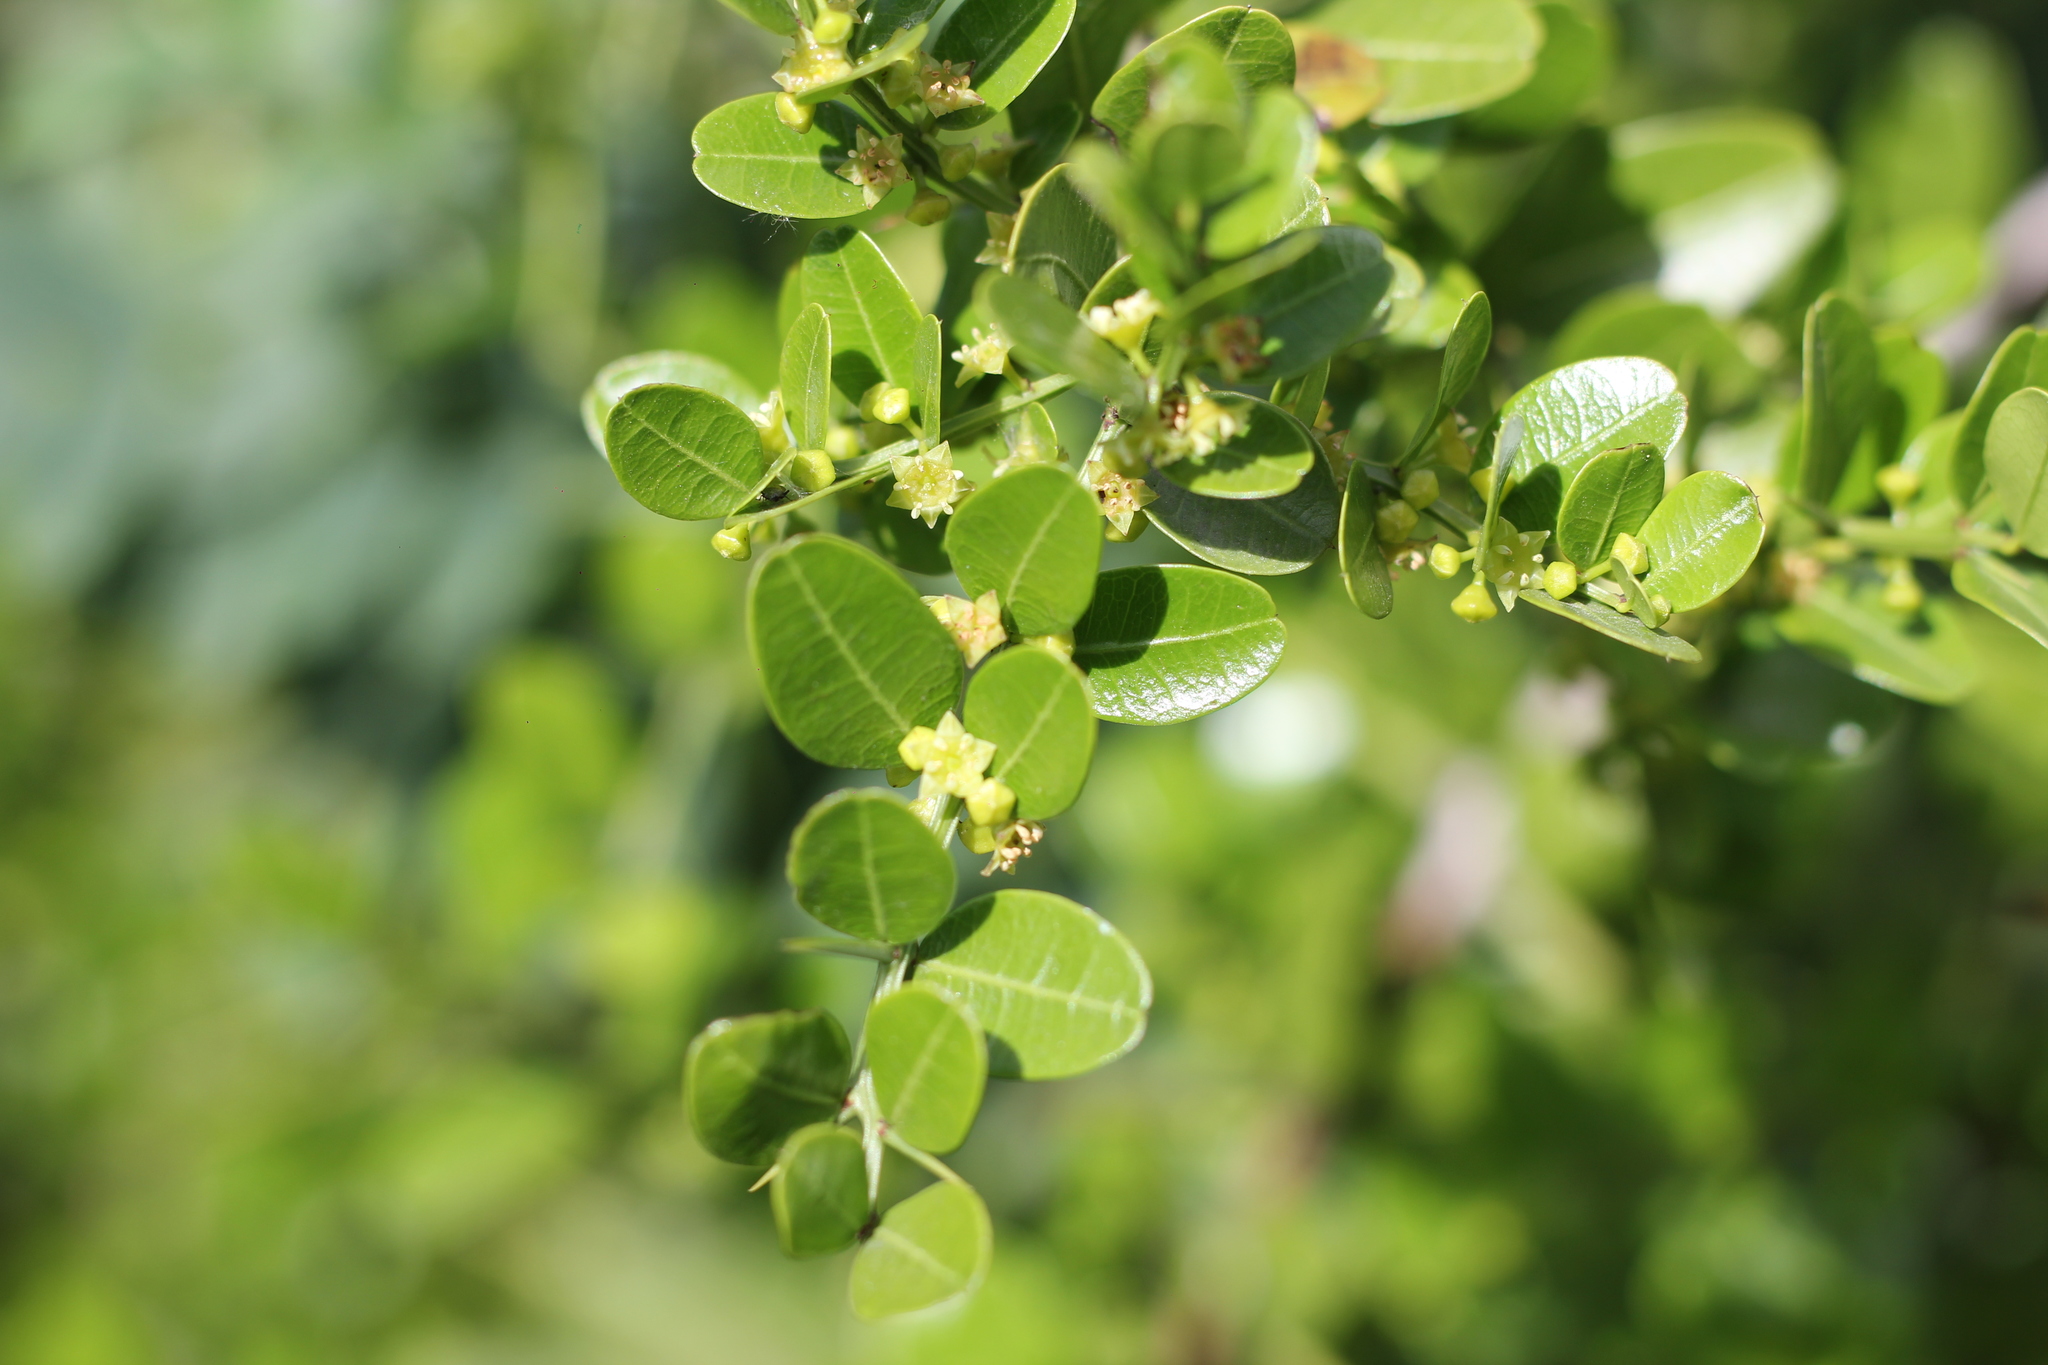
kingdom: Plantae
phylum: Tracheophyta
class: Magnoliopsida
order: Rosales
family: Rhamnaceae
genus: Scutia
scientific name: Scutia buxifolia
